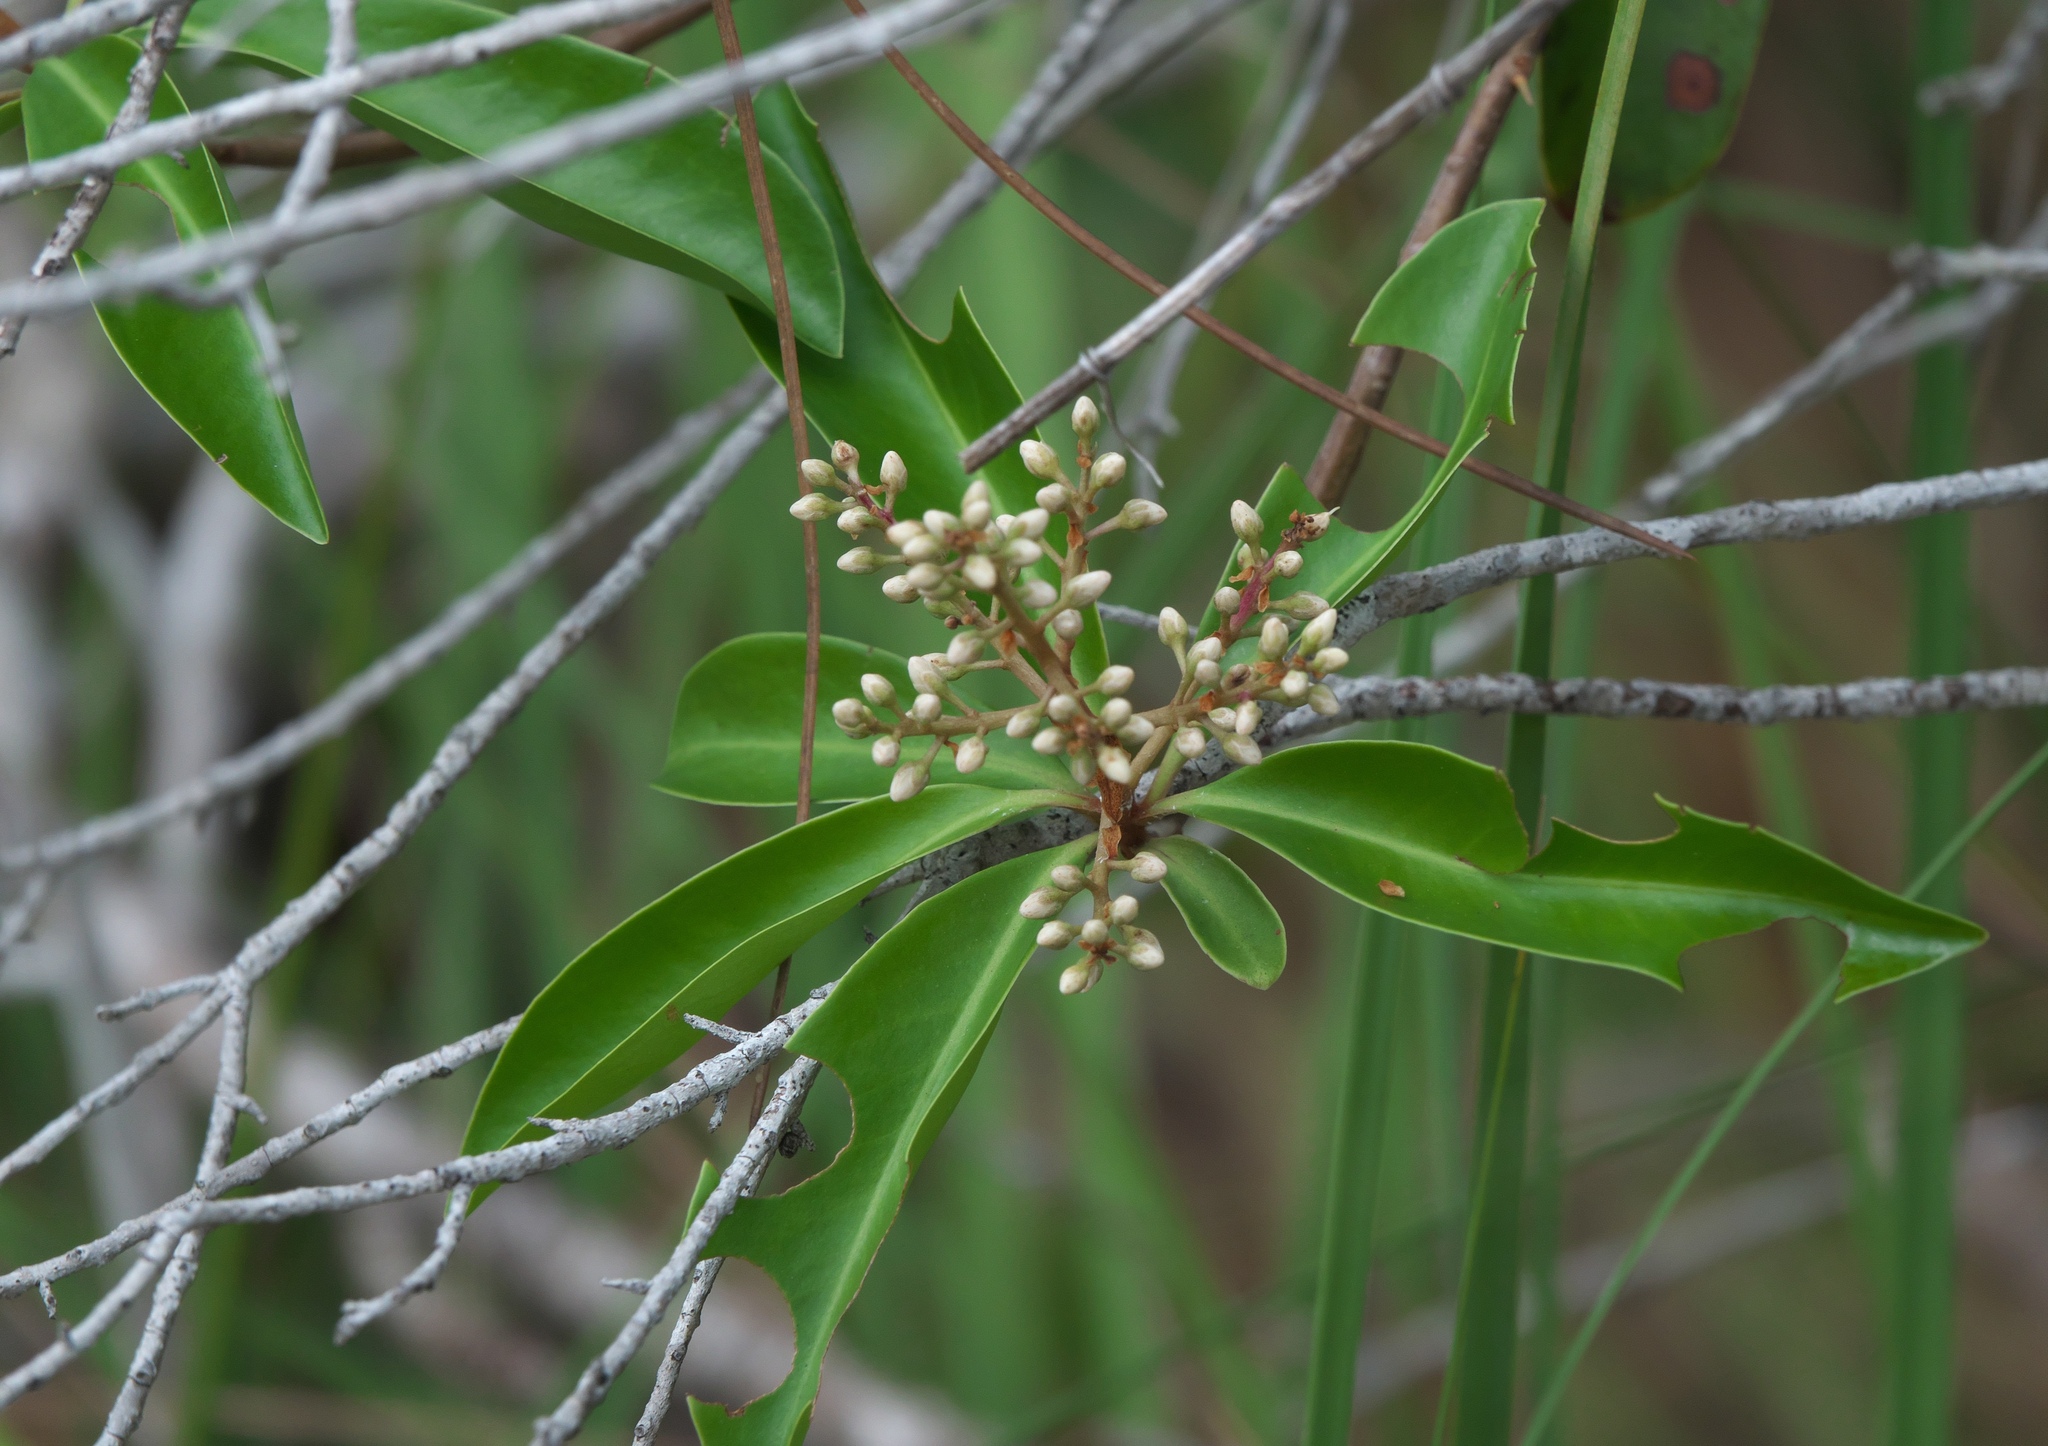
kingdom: Plantae
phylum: Tracheophyta
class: Magnoliopsida
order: Ericales
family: Primulaceae
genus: Ardisia
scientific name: Ardisia escallonioides
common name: Island marlberry
